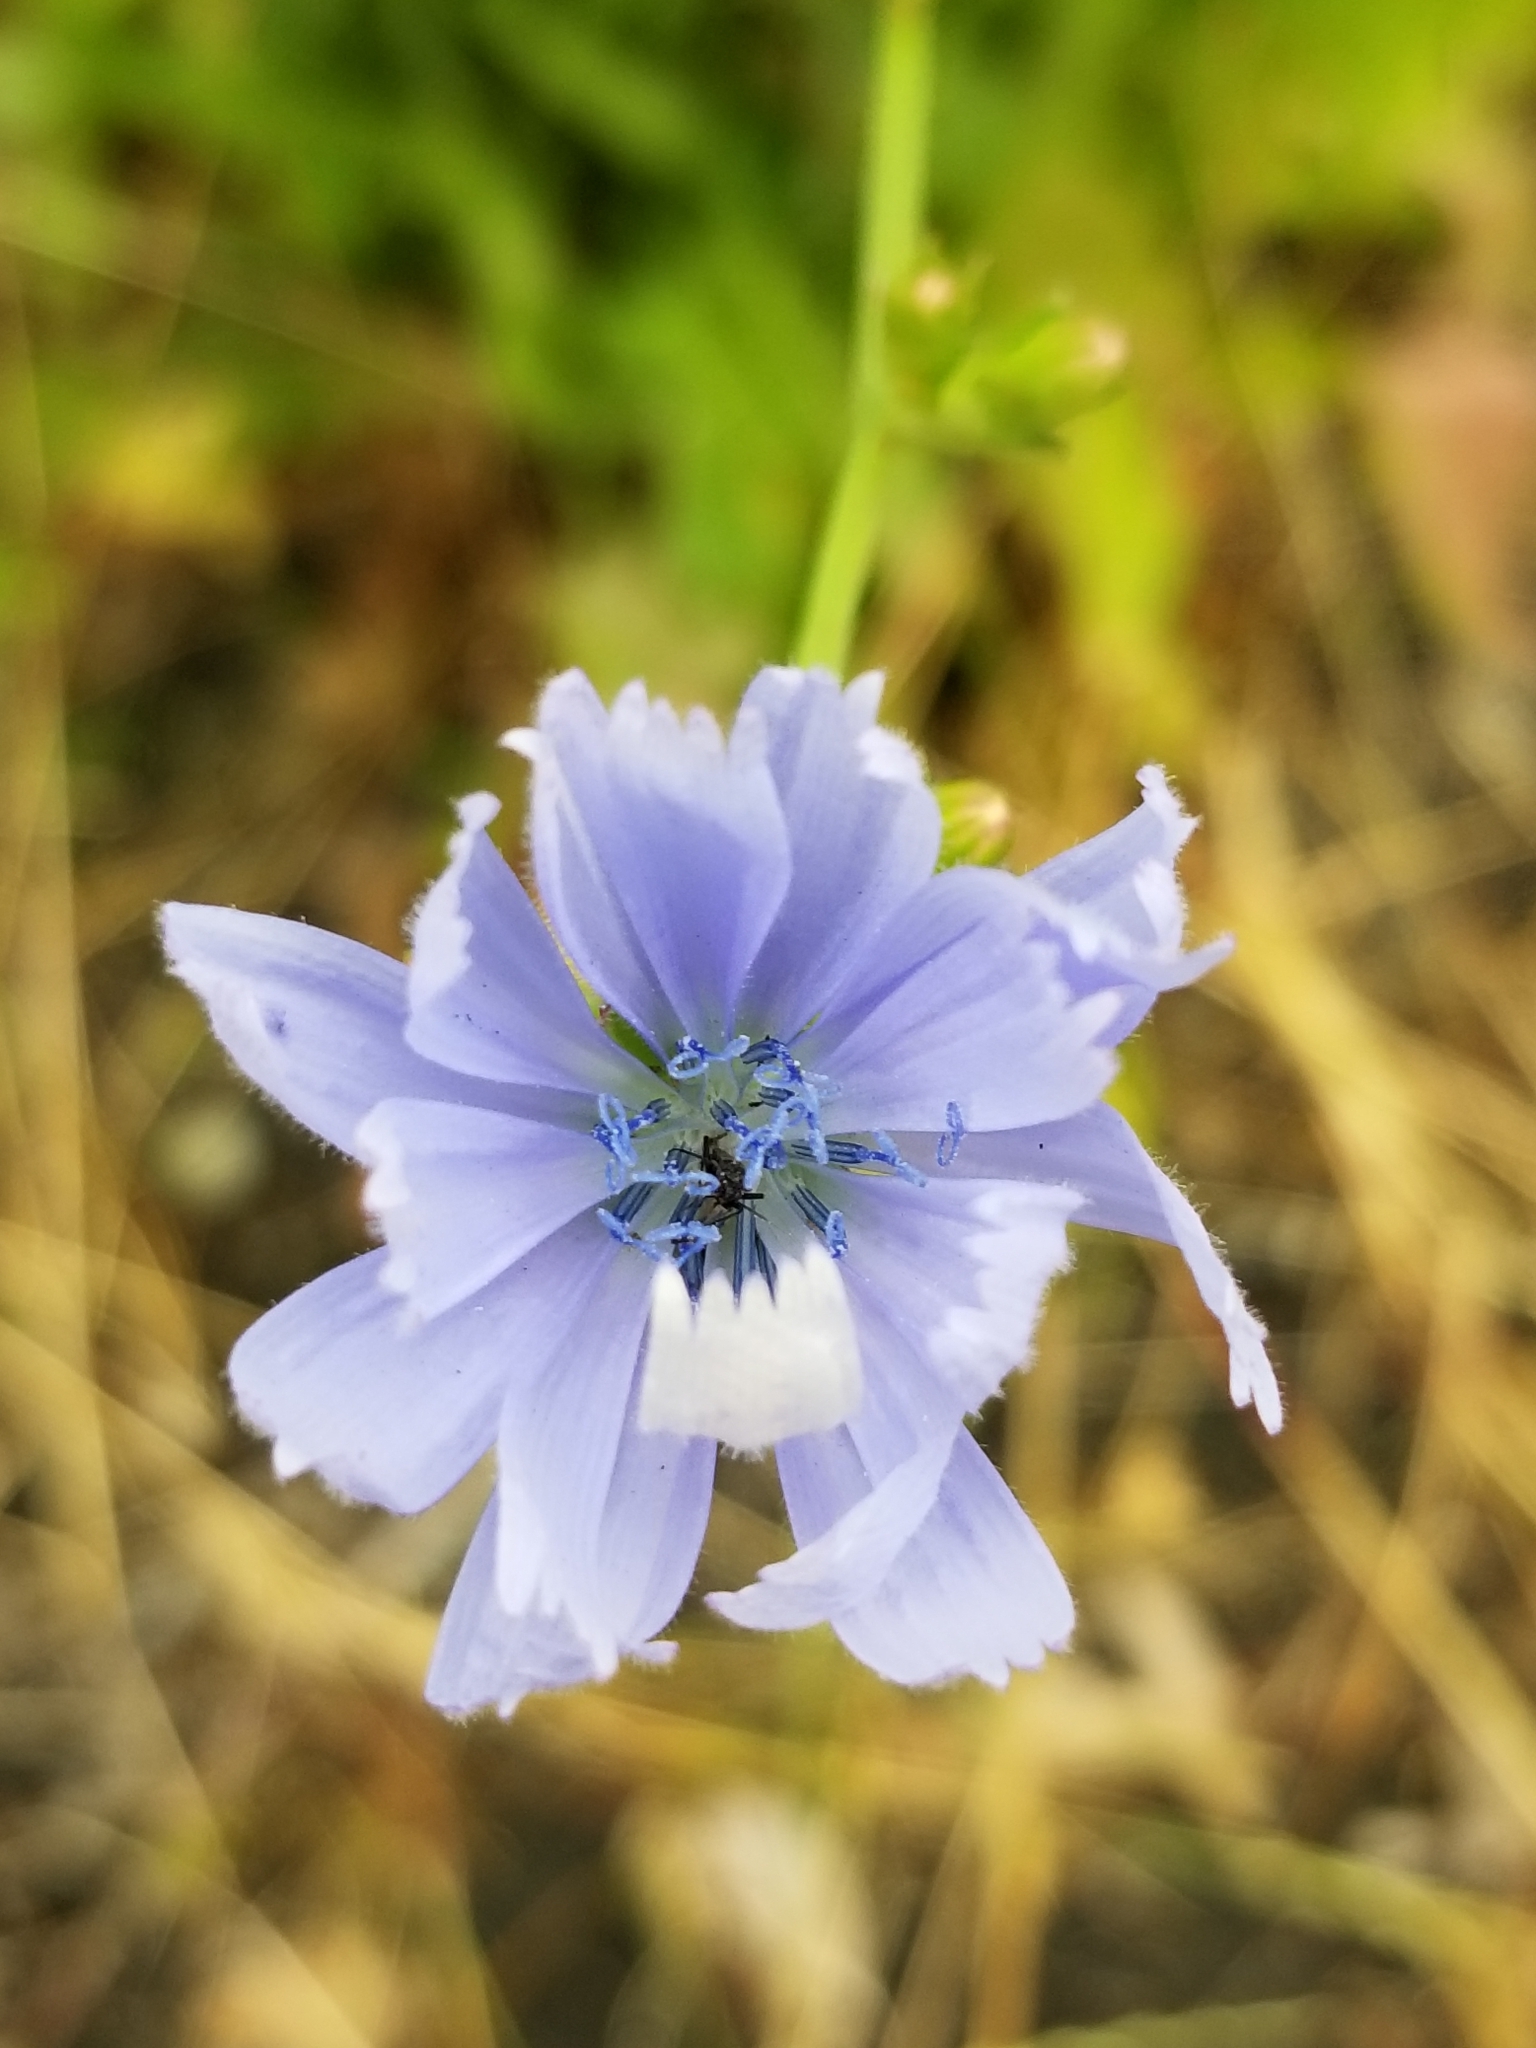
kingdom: Plantae
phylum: Tracheophyta
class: Magnoliopsida
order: Asterales
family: Asteraceae
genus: Cichorium
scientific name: Cichorium intybus
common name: Chicory
